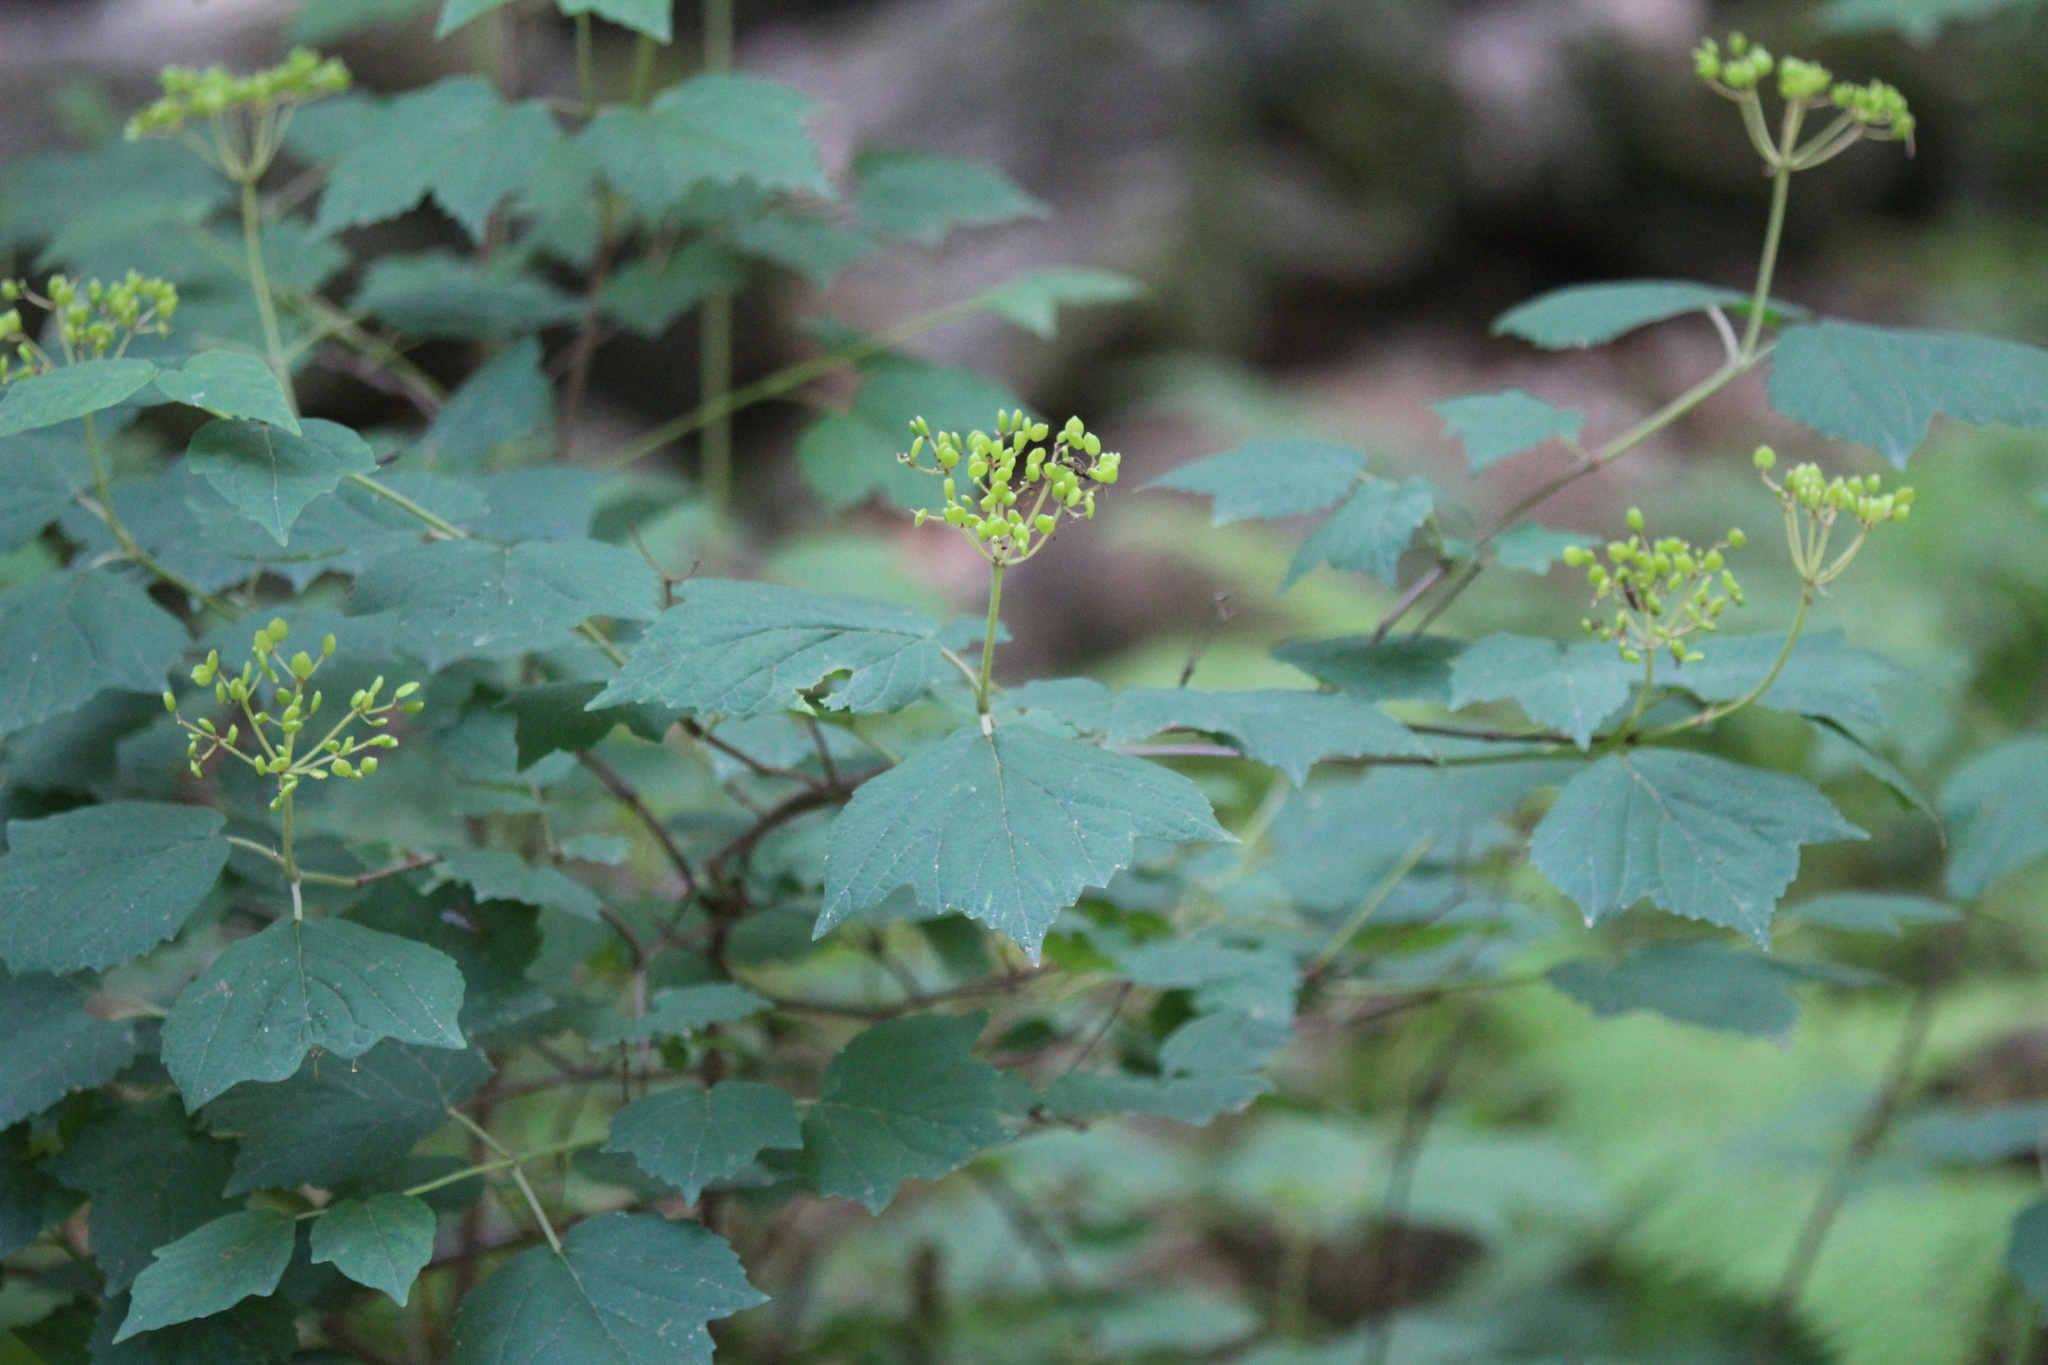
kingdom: Plantae
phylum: Tracheophyta
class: Magnoliopsida
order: Dipsacales
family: Viburnaceae
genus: Viburnum
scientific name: Viburnum acerifolium
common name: Dockmackie
